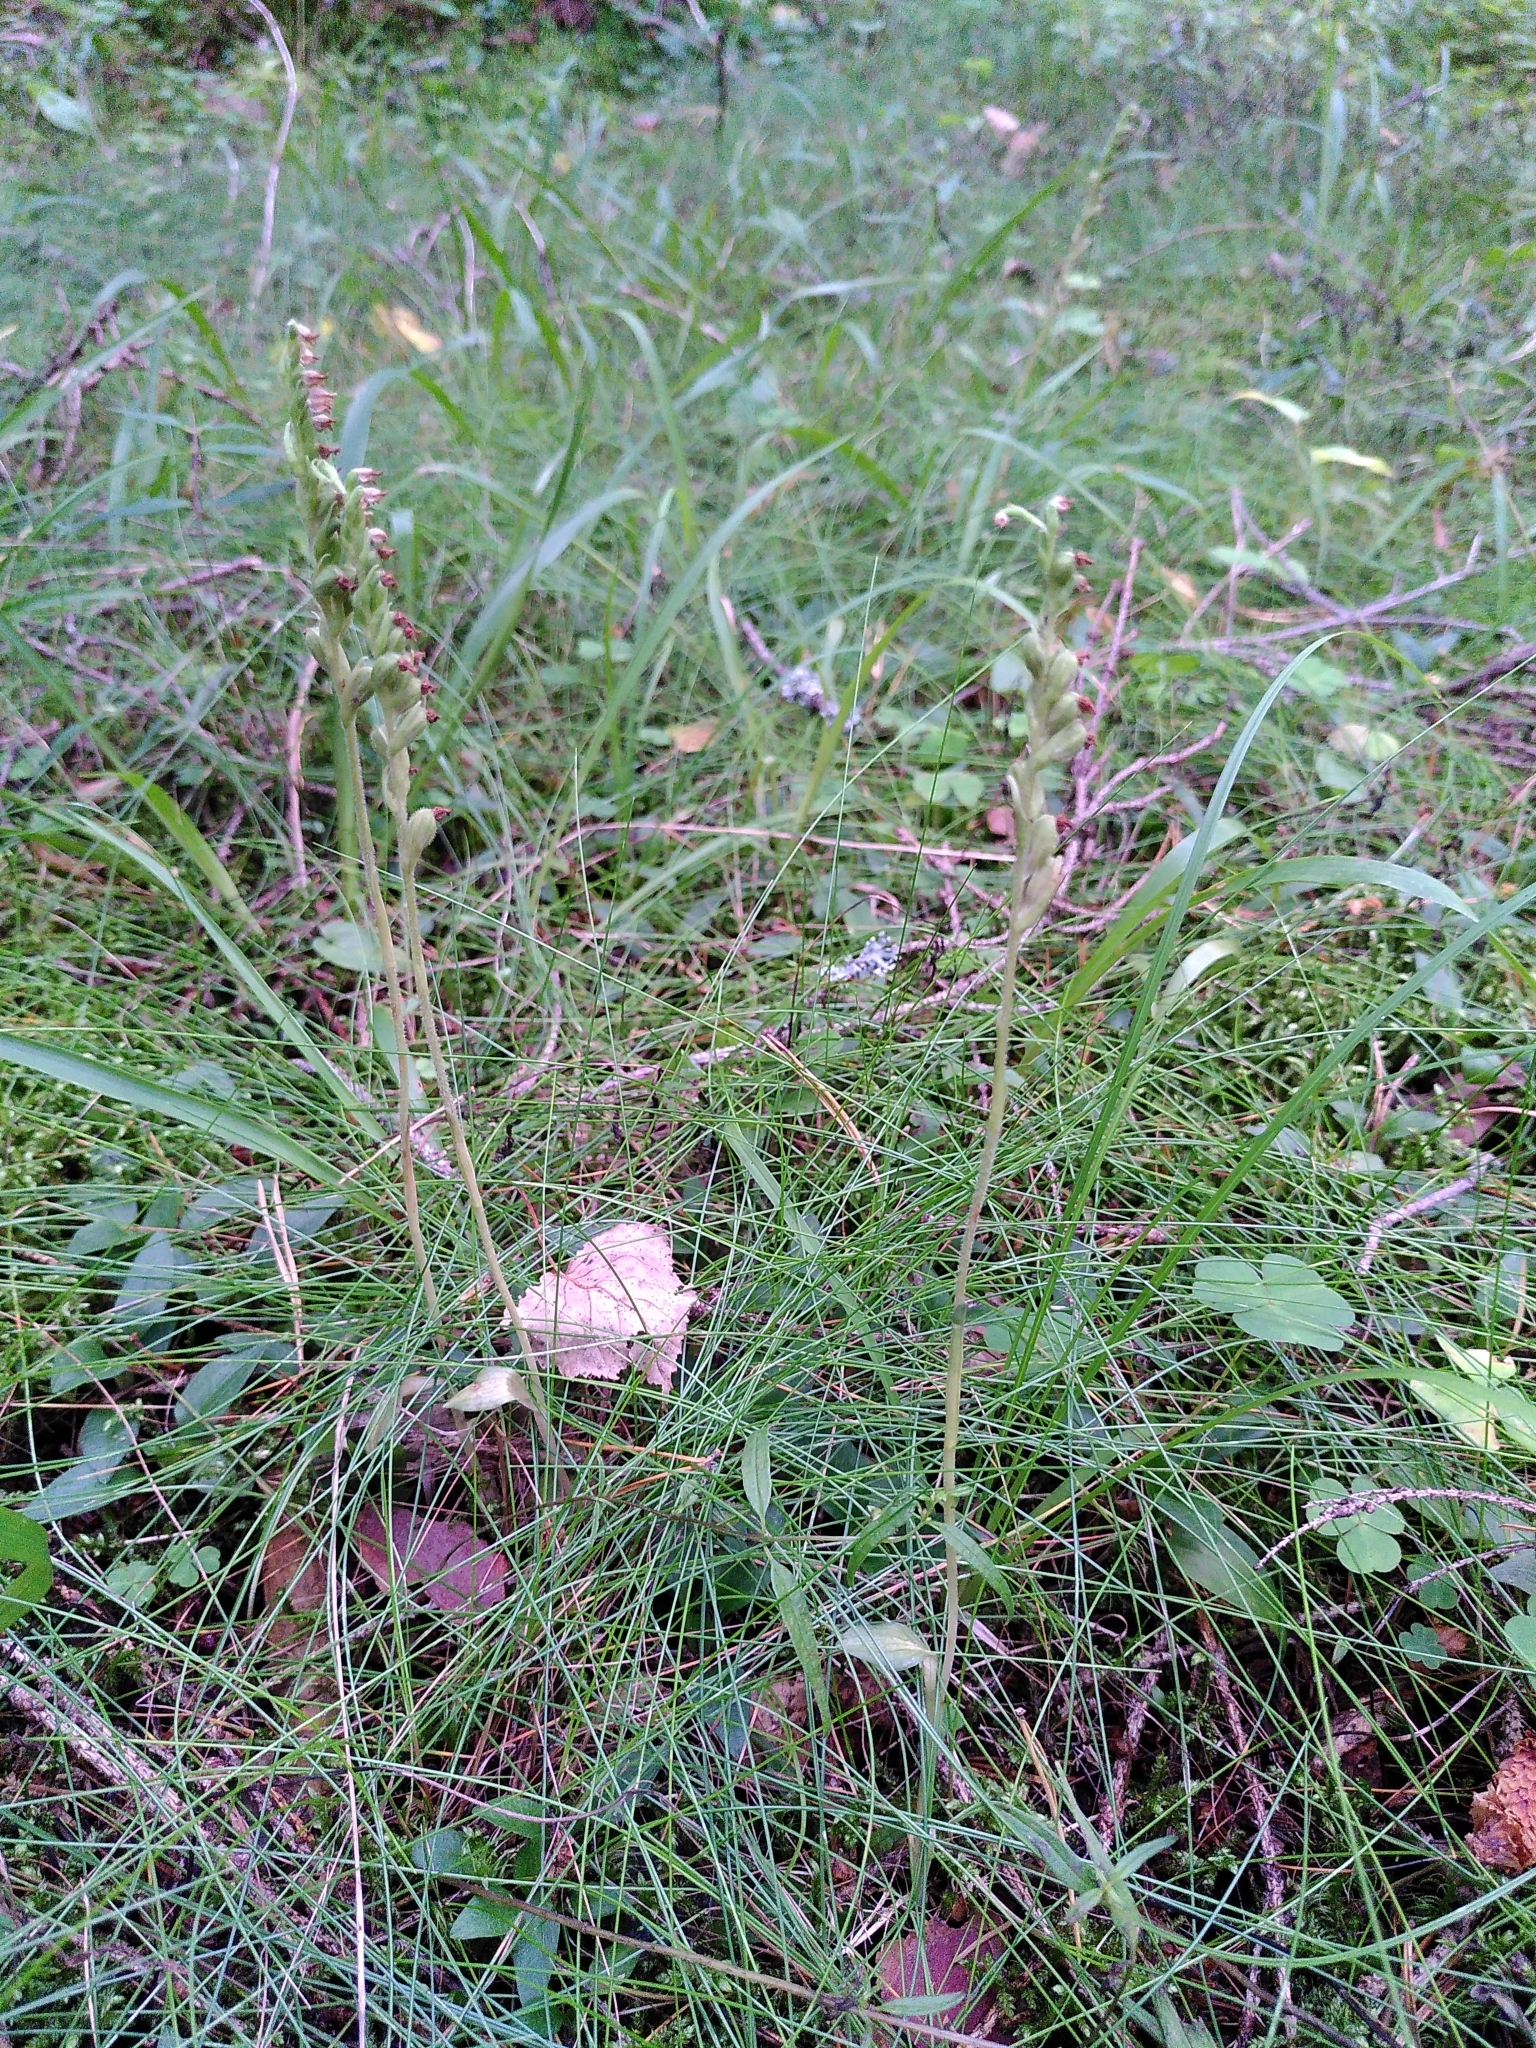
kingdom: Plantae
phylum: Tracheophyta
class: Liliopsida
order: Asparagales
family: Orchidaceae
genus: Goodyera
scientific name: Goodyera repens
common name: Creeping lady's-tresses
